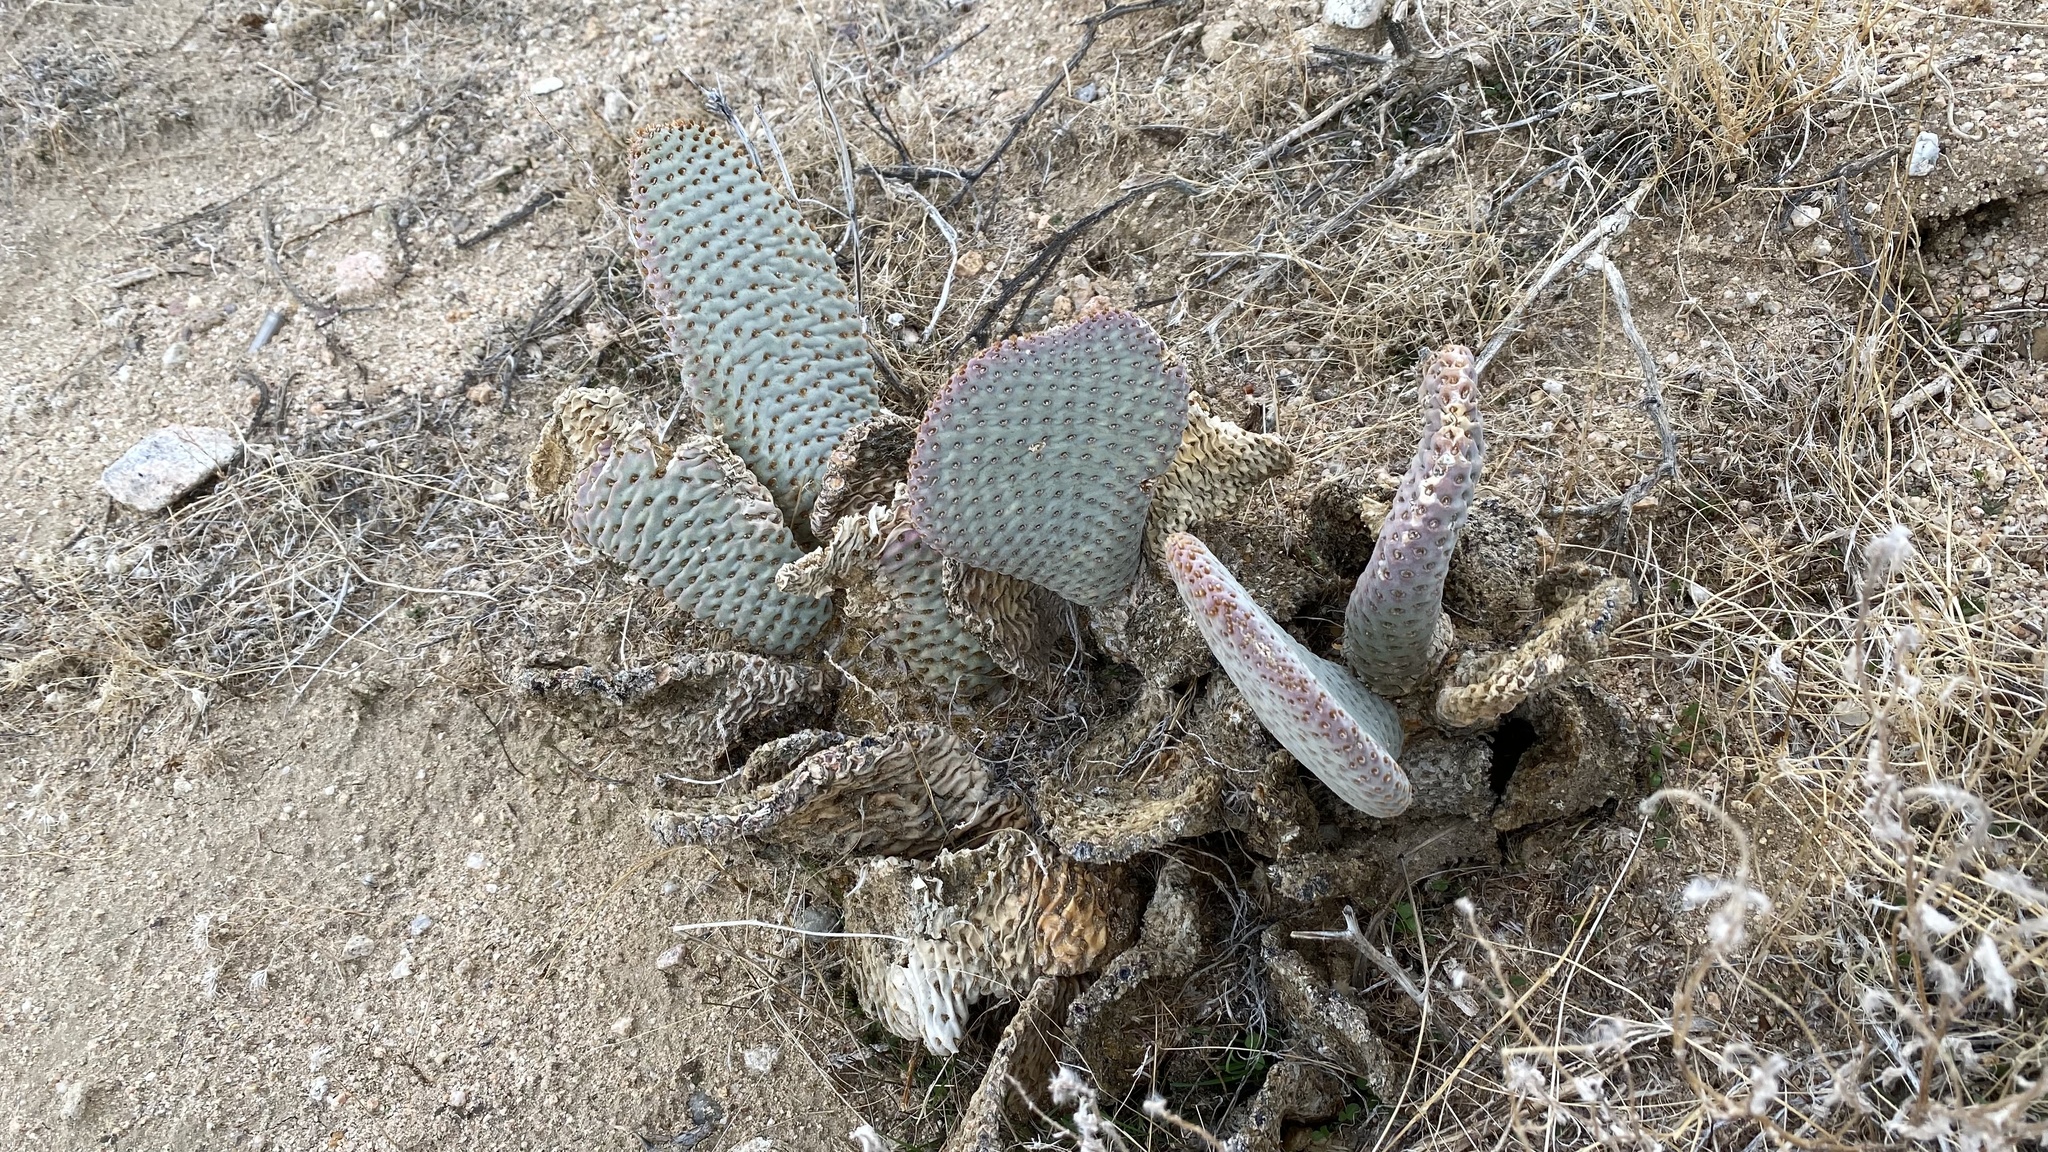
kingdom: Plantae
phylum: Tracheophyta
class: Magnoliopsida
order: Caryophyllales
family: Cactaceae
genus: Opuntia
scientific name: Opuntia basilaris
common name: Beavertail prickly-pear
